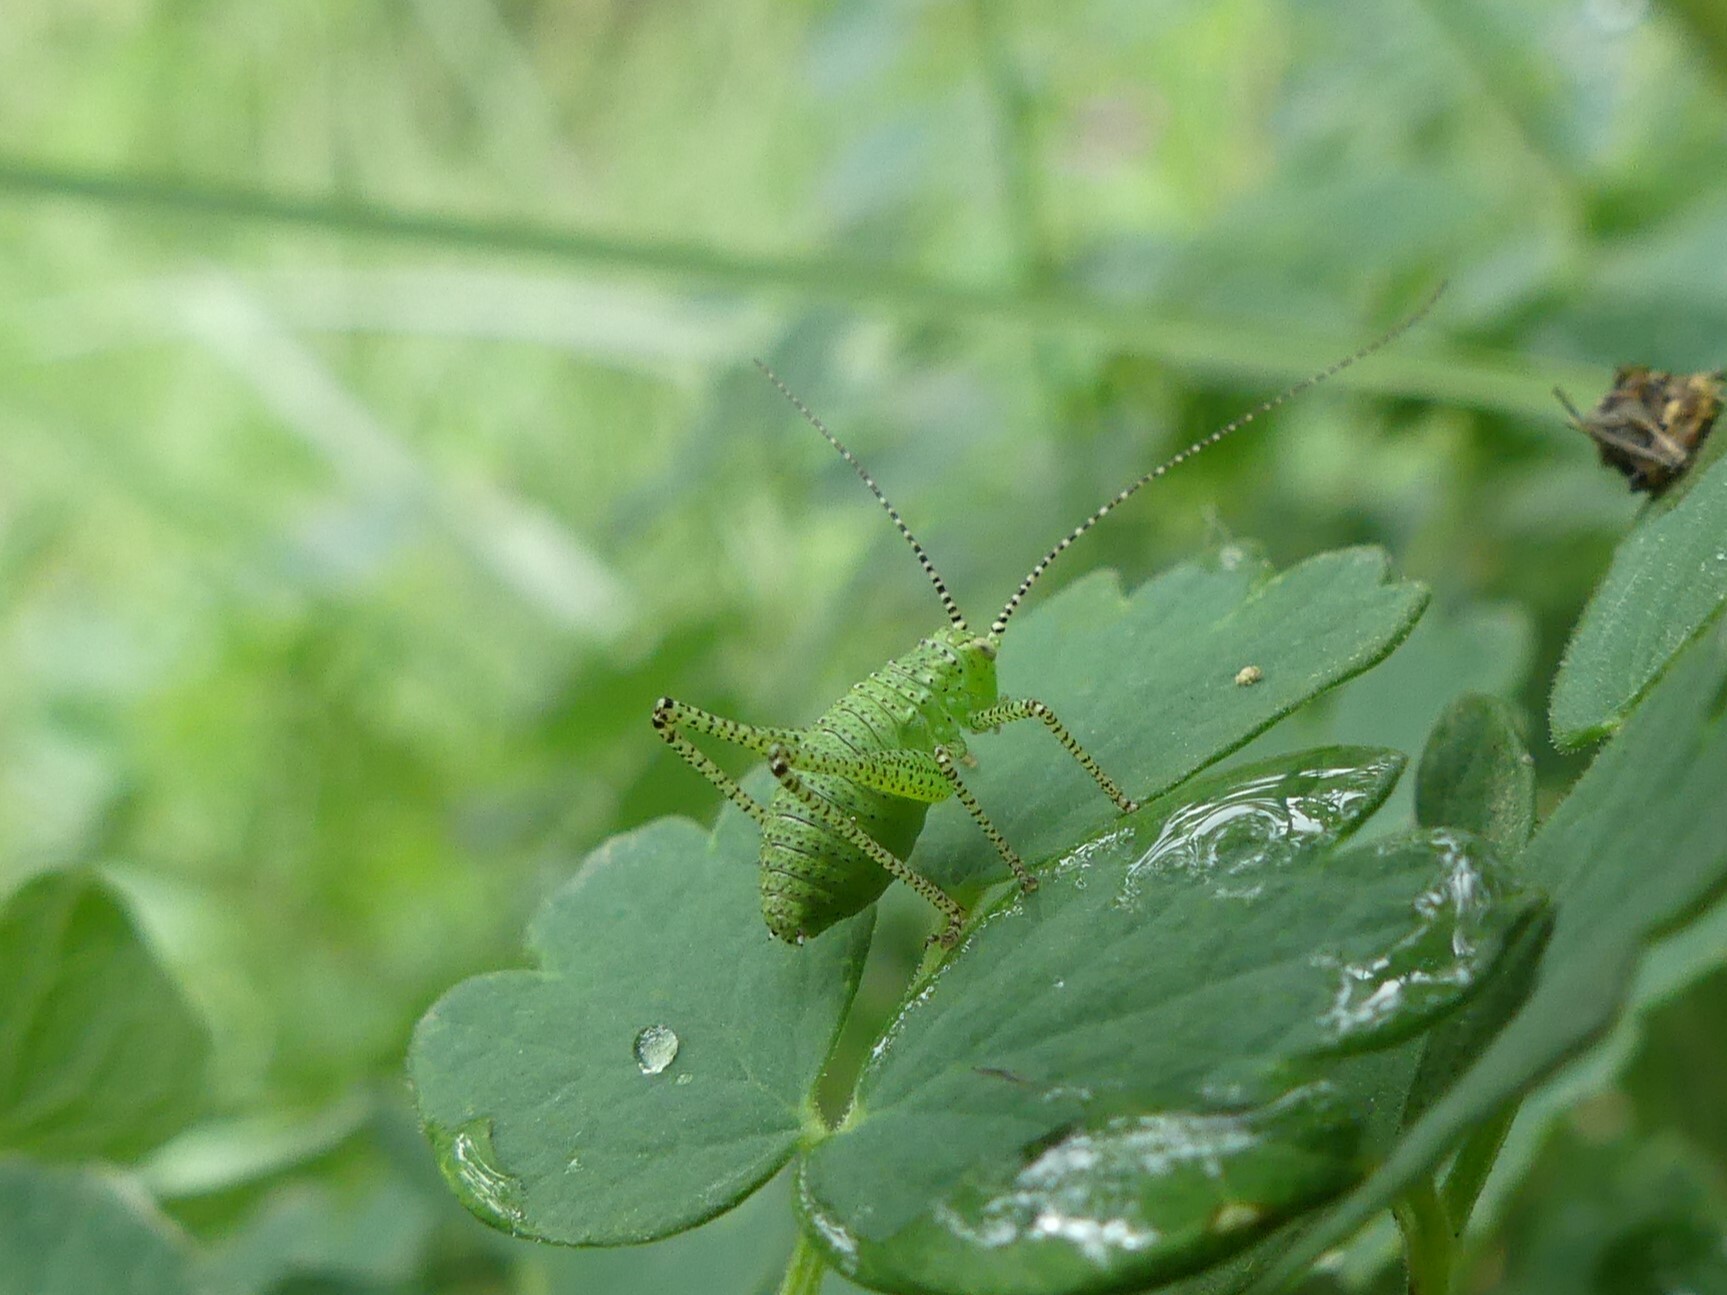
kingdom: Animalia
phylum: Arthropoda
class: Insecta
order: Orthoptera
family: Tettigoniidae
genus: Leptophyes
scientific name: Leptophyes punctatissima
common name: Speckled bush-cricket
